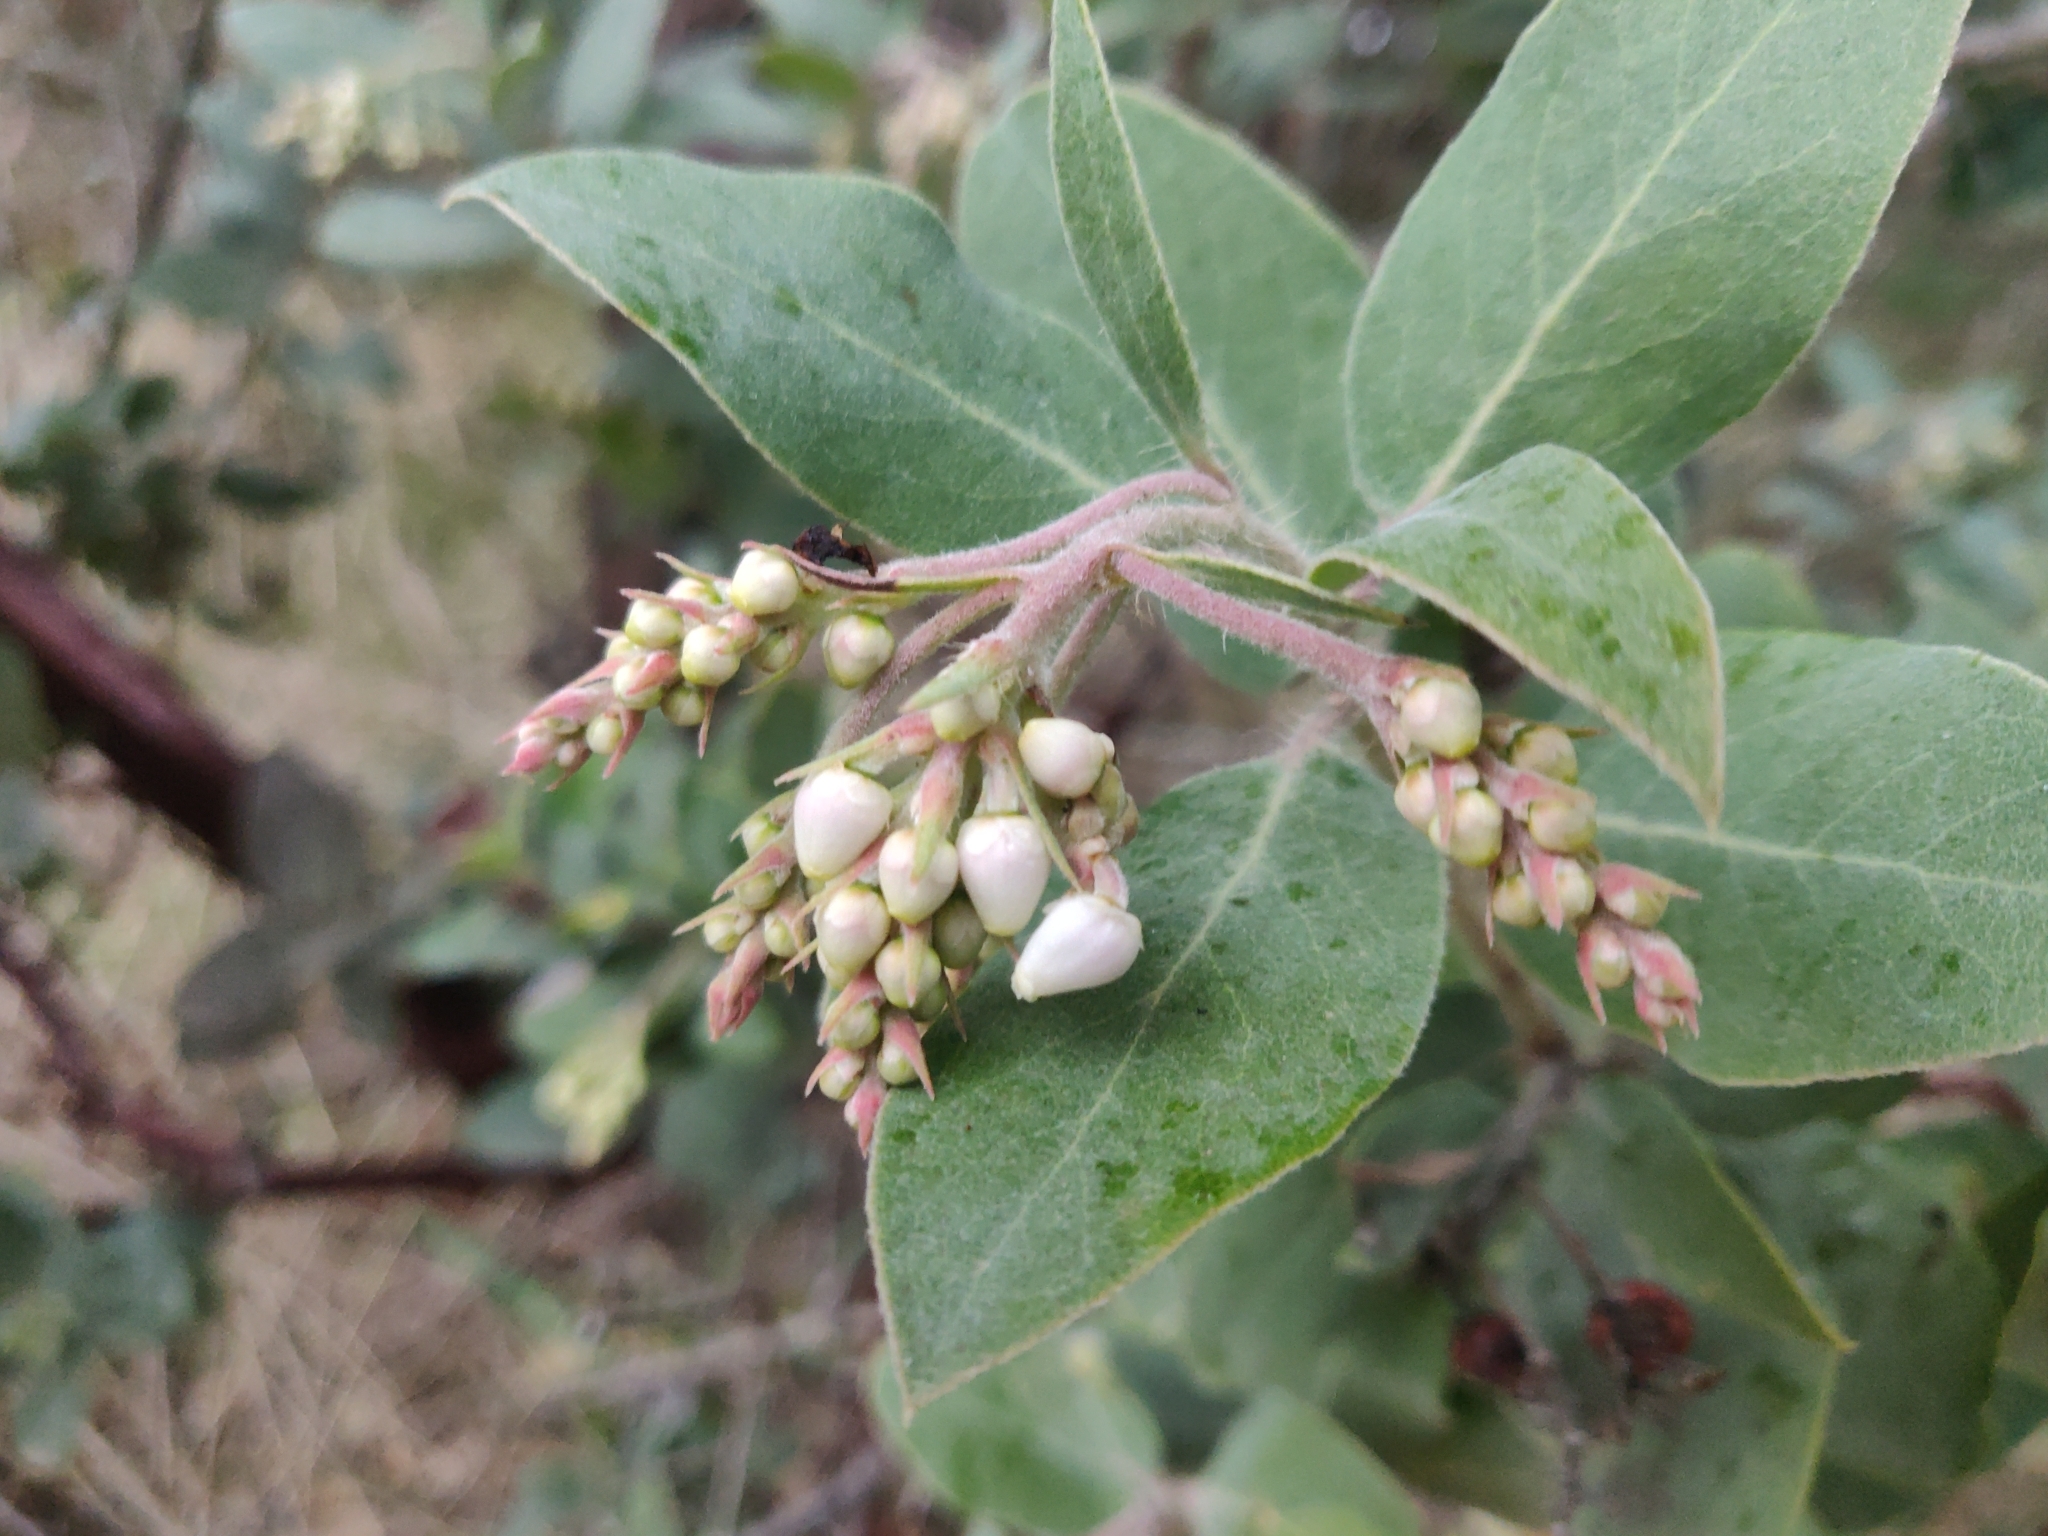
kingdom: Plantae
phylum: Tracheophyta
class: Magnoliopsida
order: Ericales
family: Ericaceae
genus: Arctostaphylos
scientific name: Arctostaphylos crustacea
